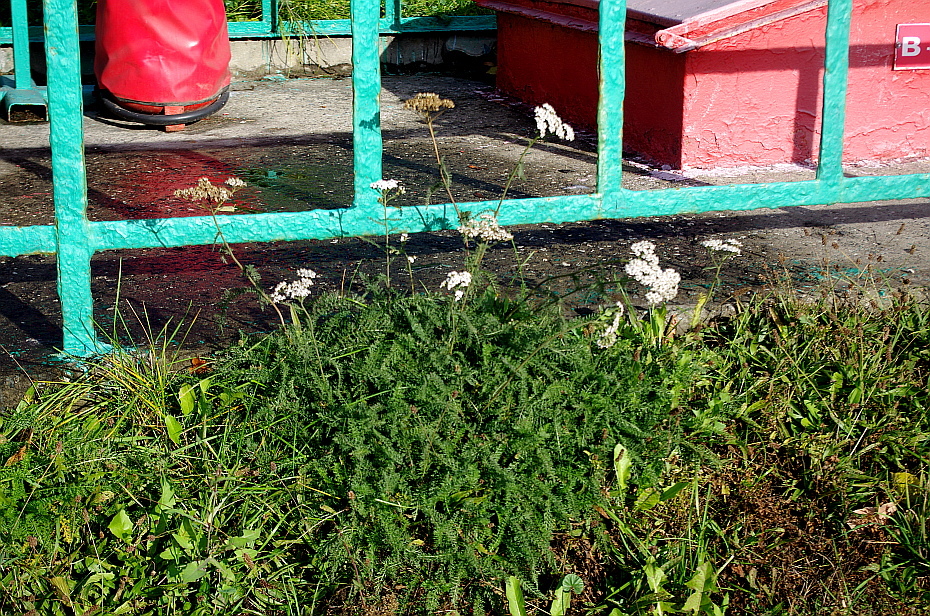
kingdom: Plantae
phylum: Tracheophyta
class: Magnoliopsida
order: Asterales
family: Asteraceae
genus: Achillea
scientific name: Achillea millefolium
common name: Yarrow
